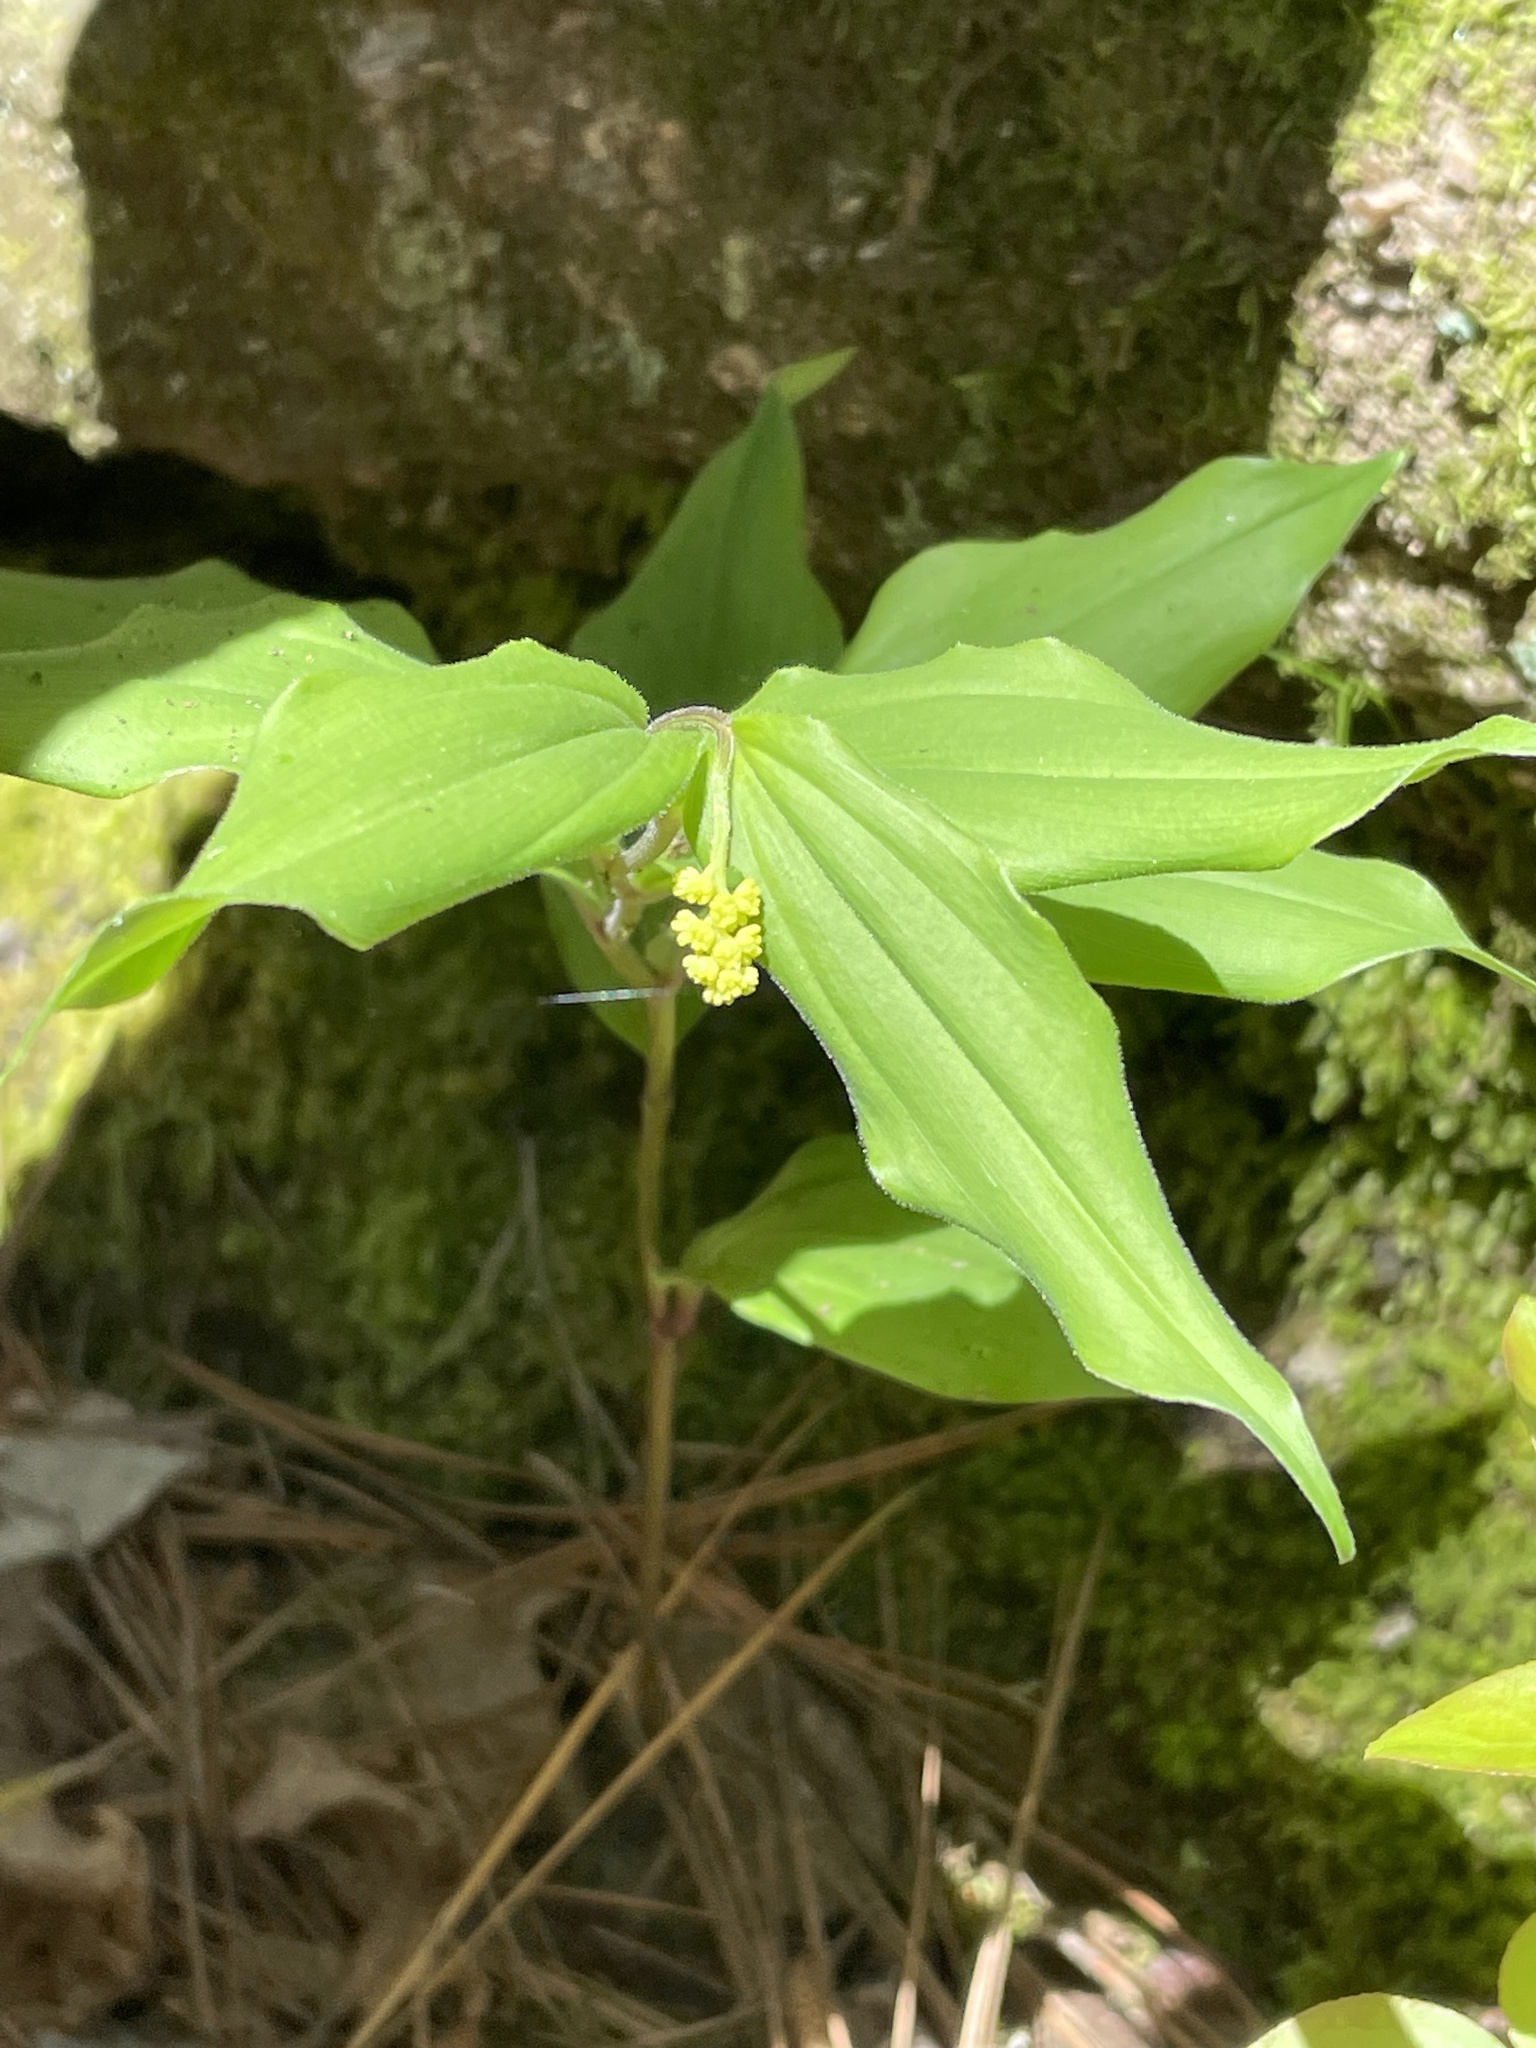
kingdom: Plantae
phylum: Tracheophyta
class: Liliopsida
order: Asparagales
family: Asparagaceae
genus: Maianthemum
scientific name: Maianthemum racemosum
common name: False spikenard
